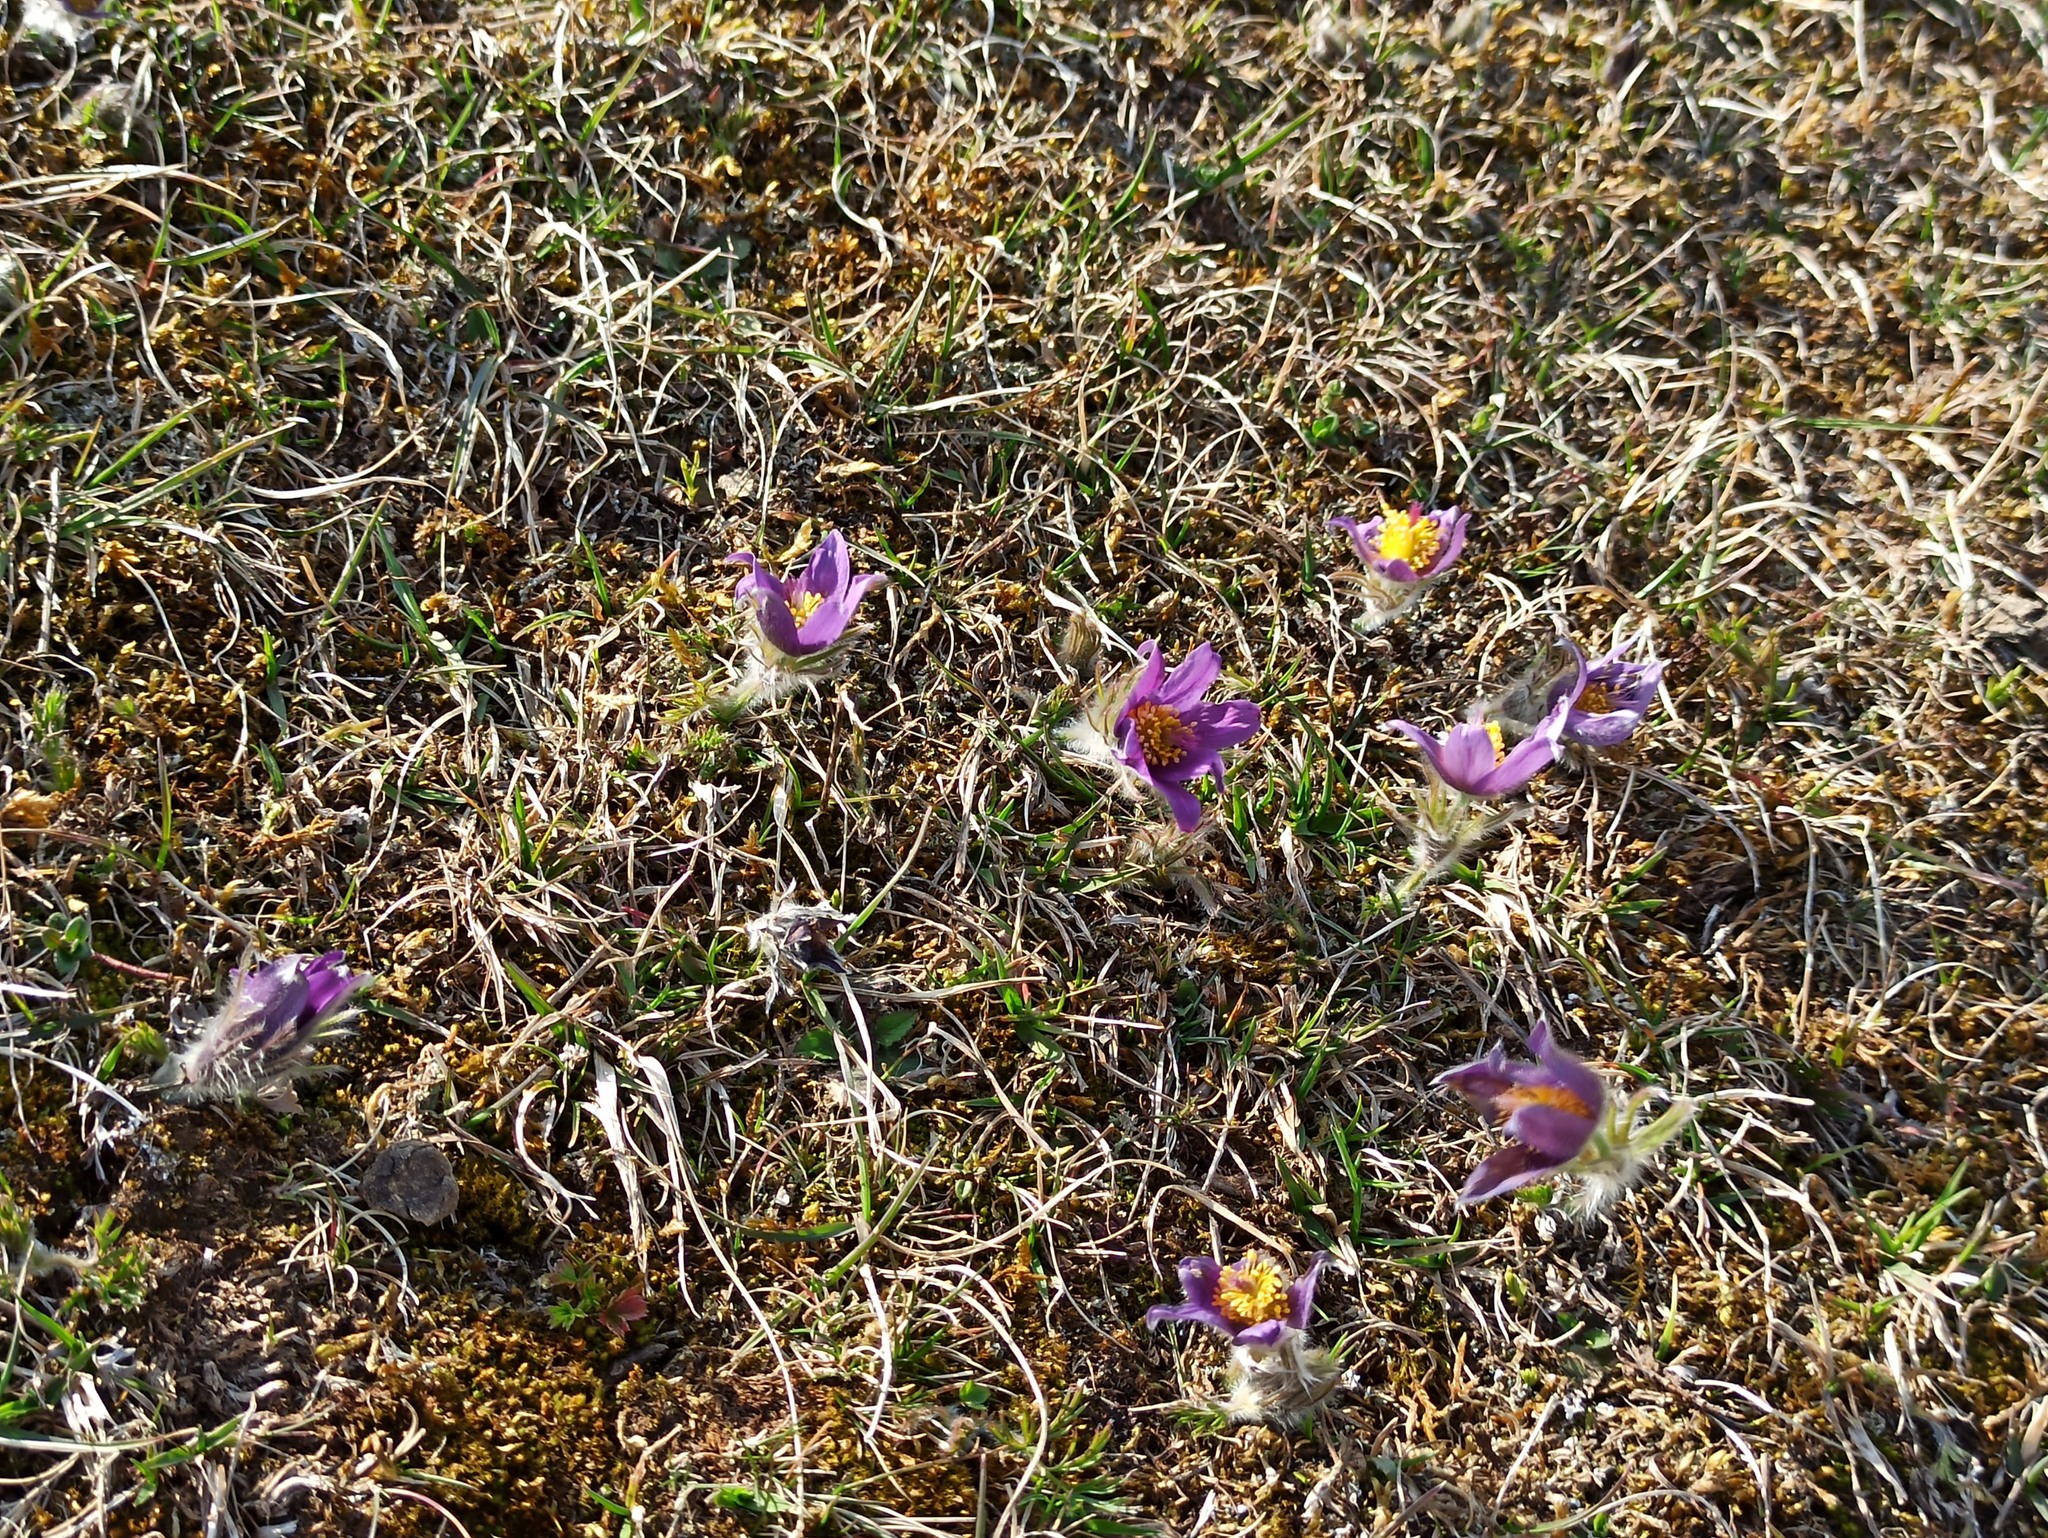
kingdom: Plantae
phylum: Tracheophyta
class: Magnoliopsida
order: Ranunculales
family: Ranunculaceae
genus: Pulsatilla
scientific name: Pulsatilla vulgaris
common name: Pasqueflower
